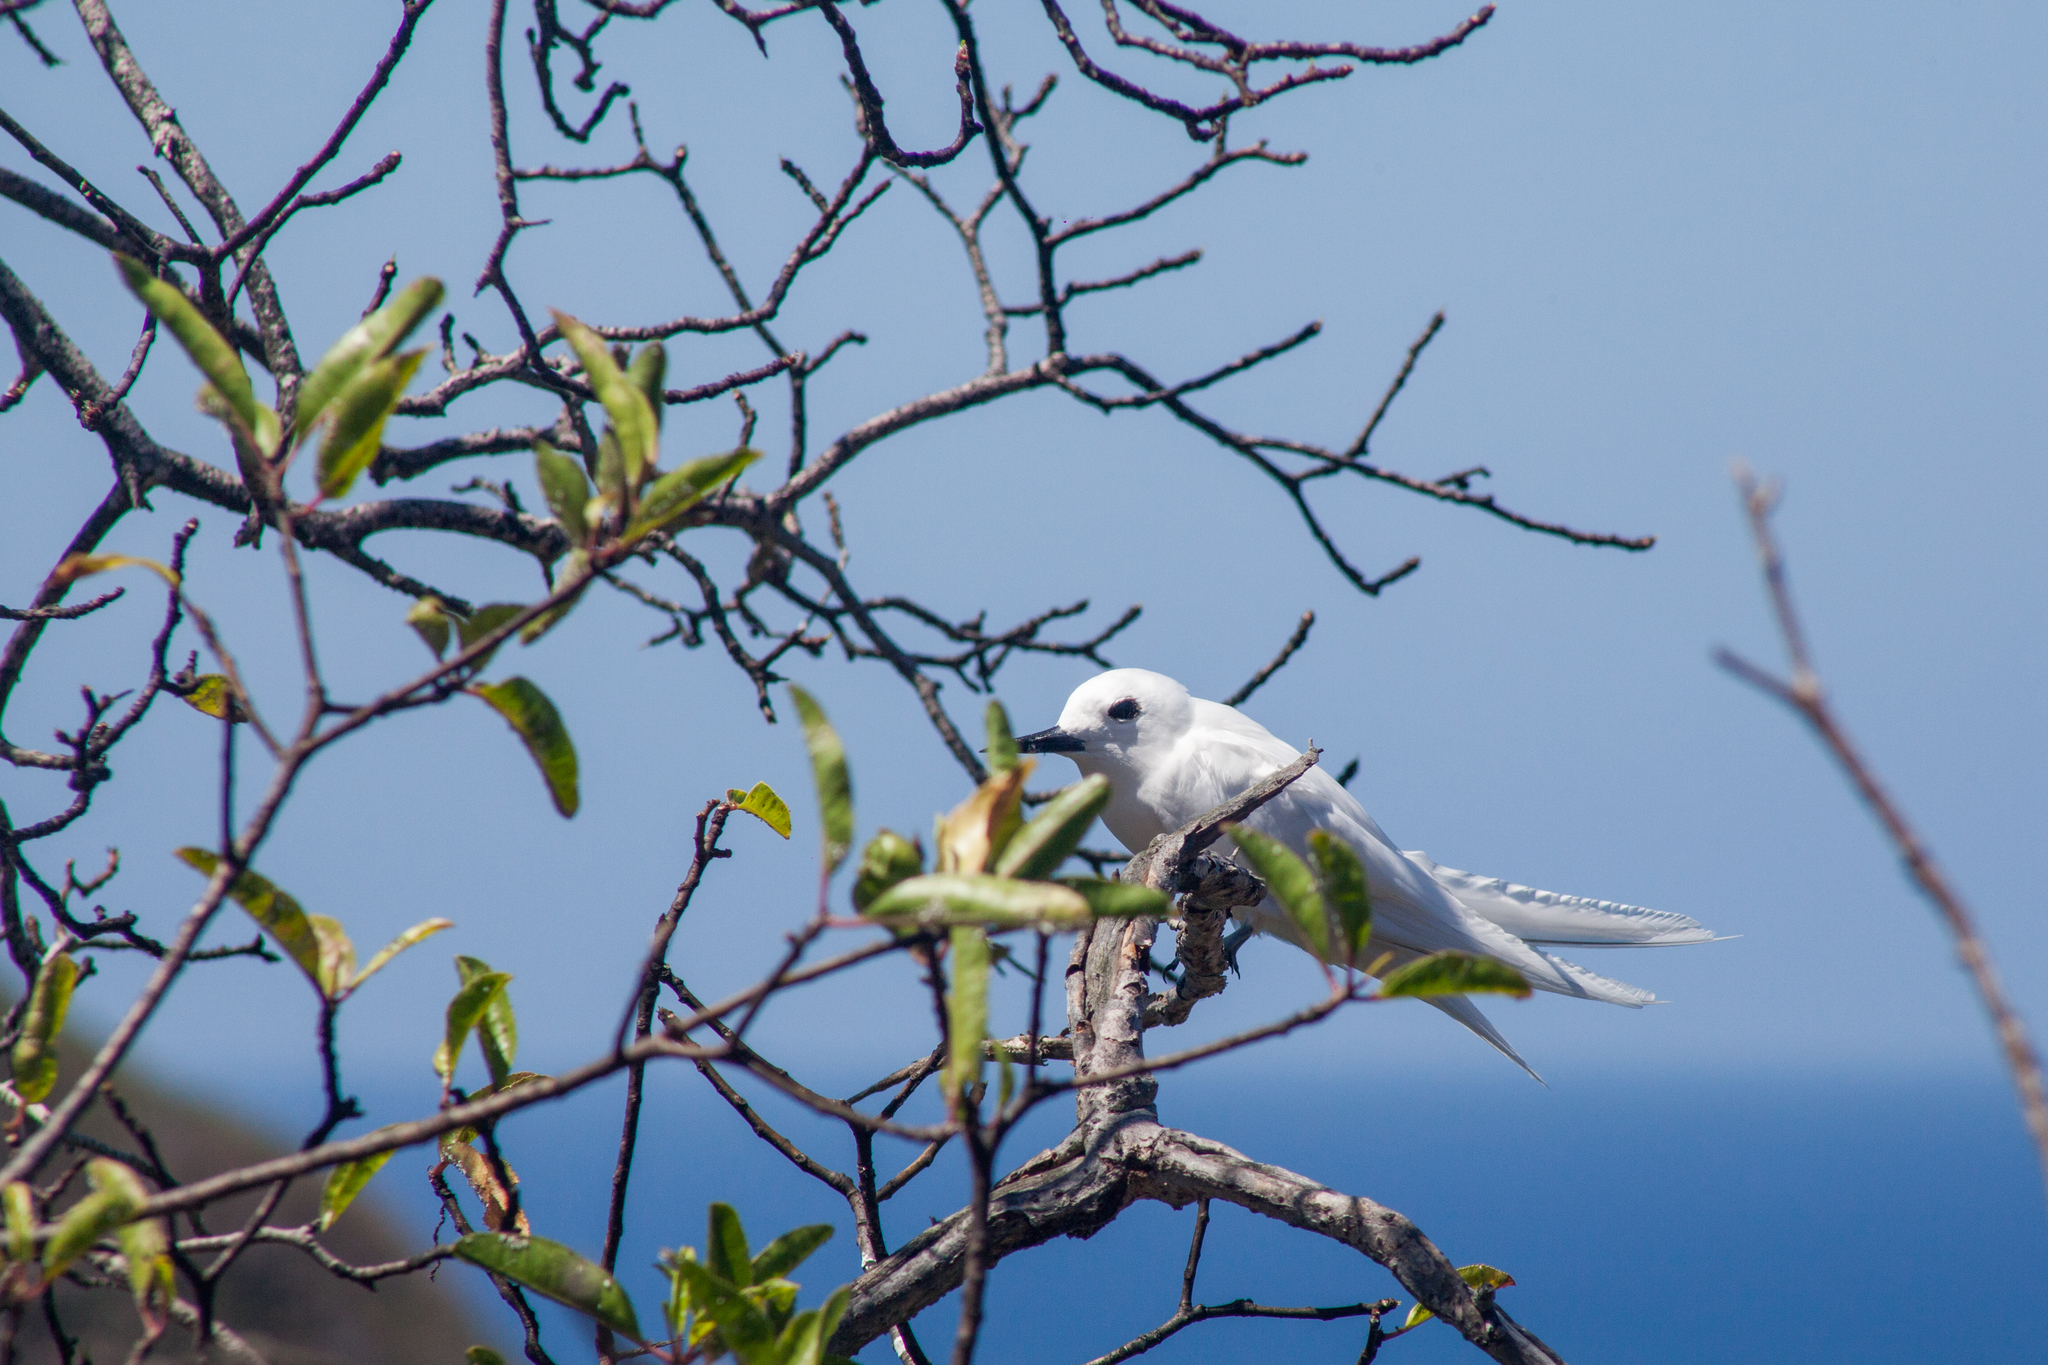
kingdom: Animalia
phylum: Chordata
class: Aves
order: Charadriiformes
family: Laridae
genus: Gygis
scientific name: Gygis alba
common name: White tern
